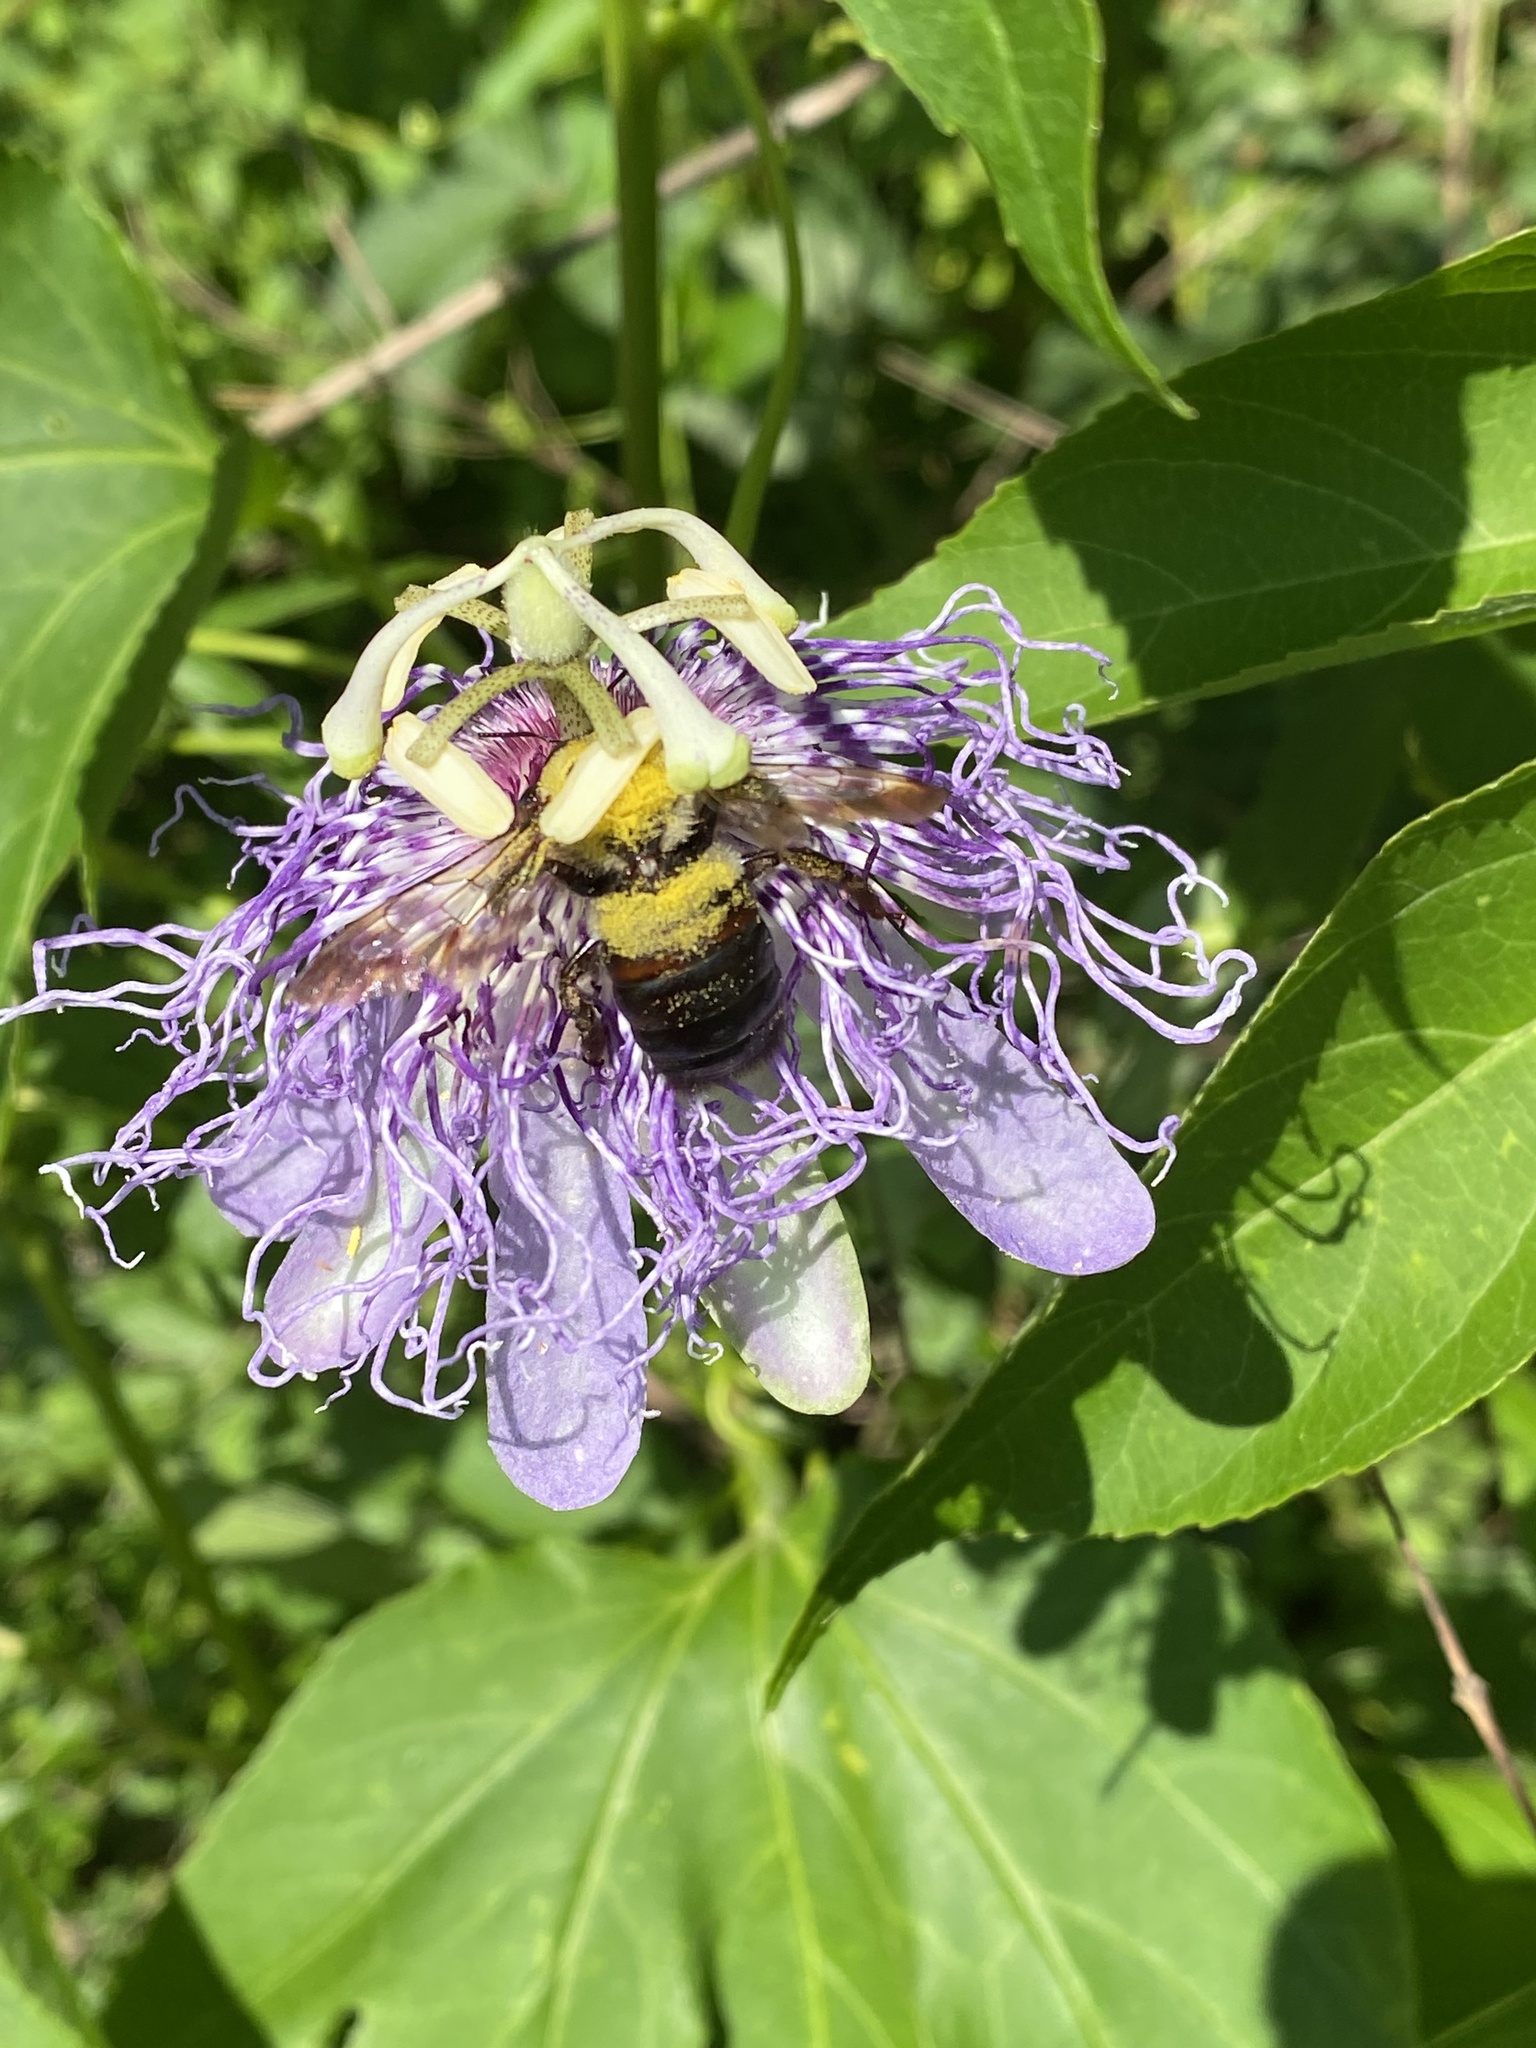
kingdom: Animalia
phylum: Arthropoda
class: Insecta
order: Hymenoptera
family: Apidae
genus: Xylocopa
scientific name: Xylocopa virginica
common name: Carpenter bee
